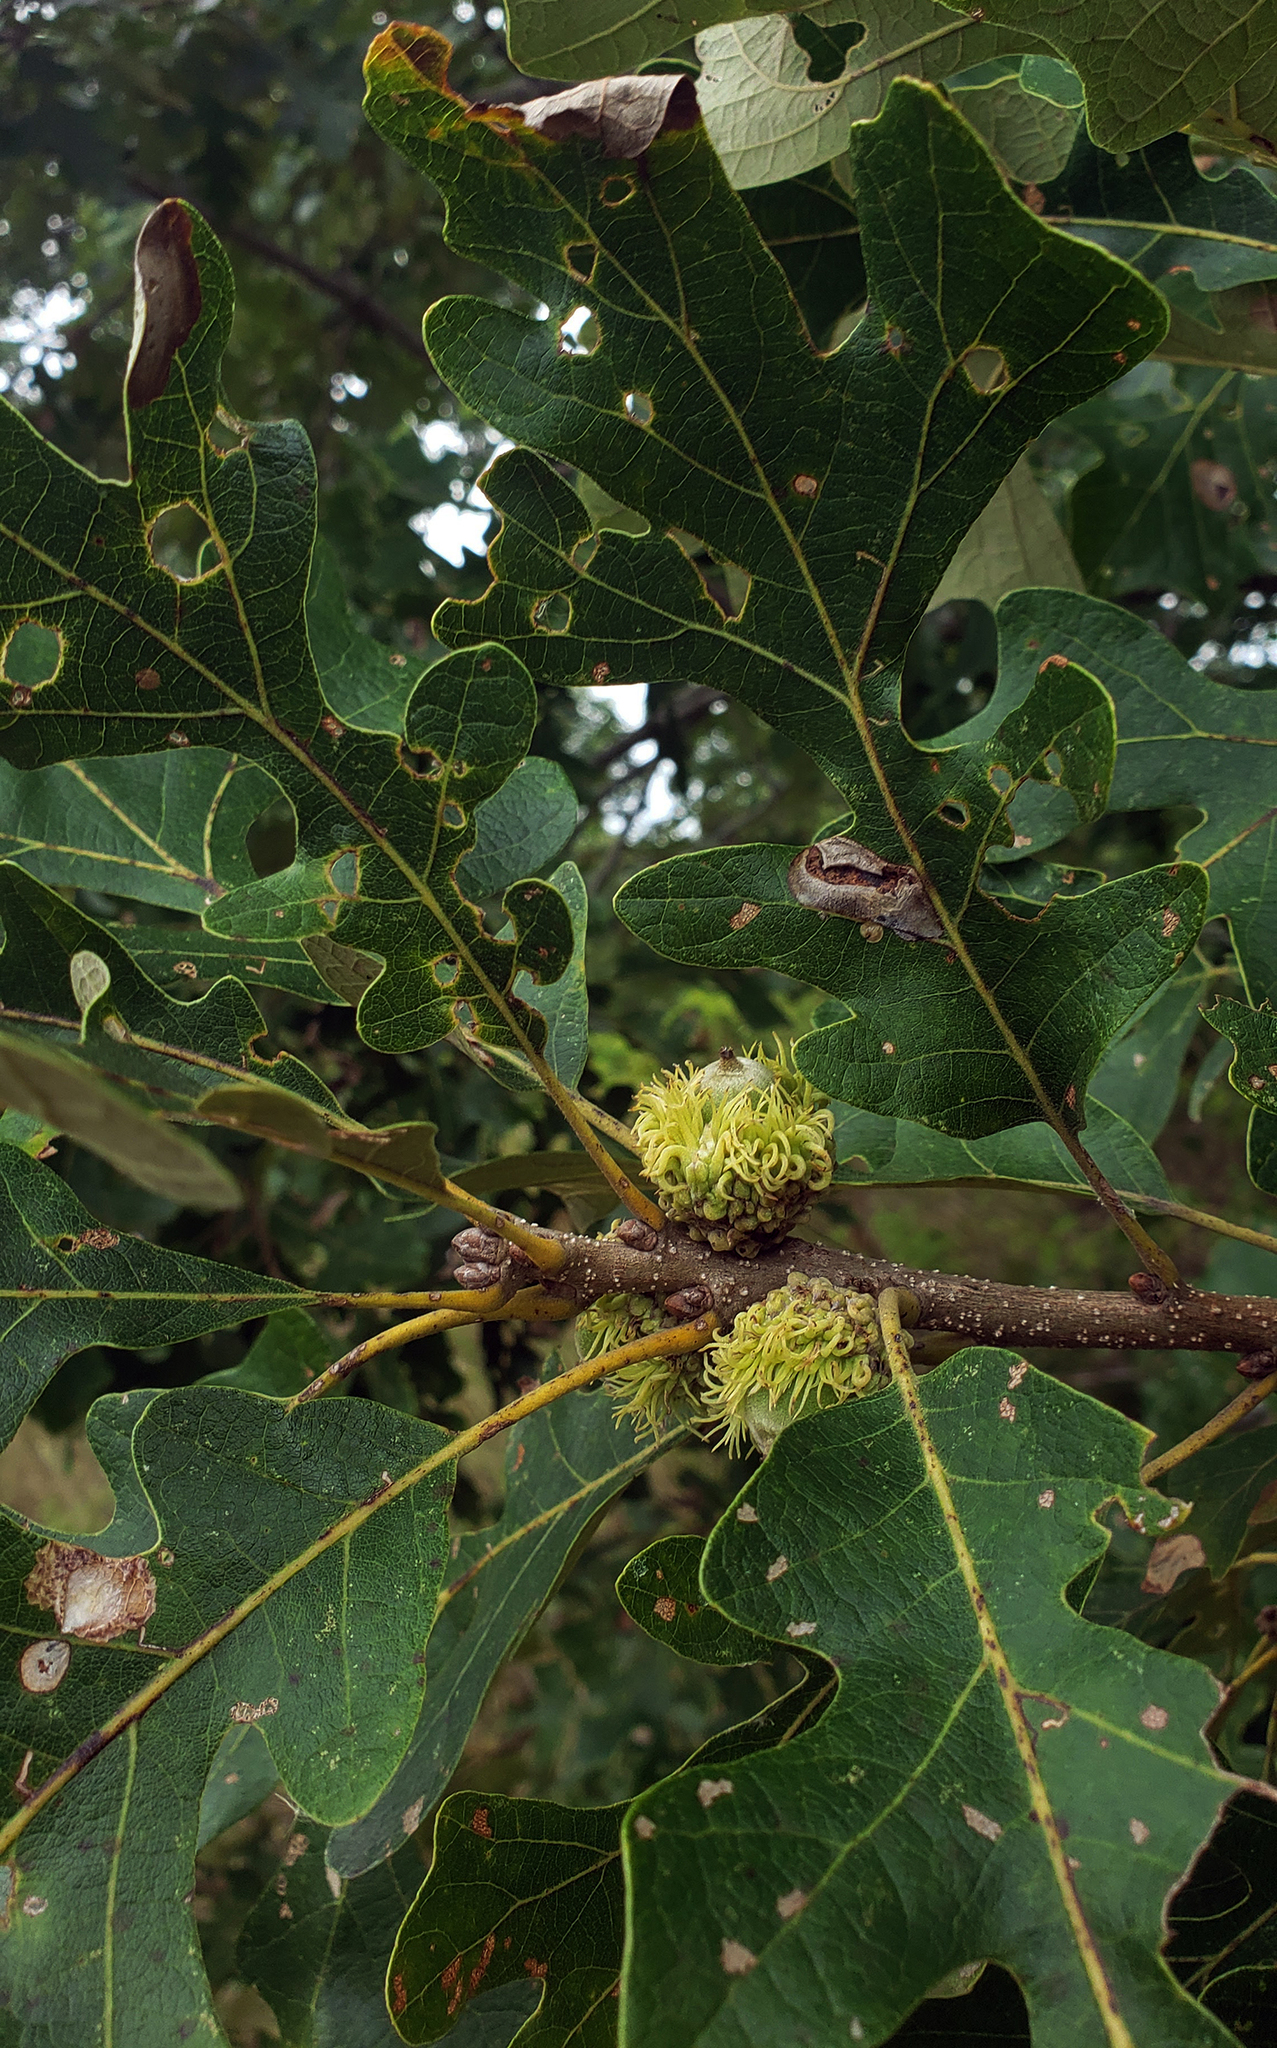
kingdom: Plantae
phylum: Tracheophyta
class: Magnoliopsida
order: Fagales
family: Fagaceae
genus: Quercus
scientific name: Quercus macrocarpa
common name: Bur oak
